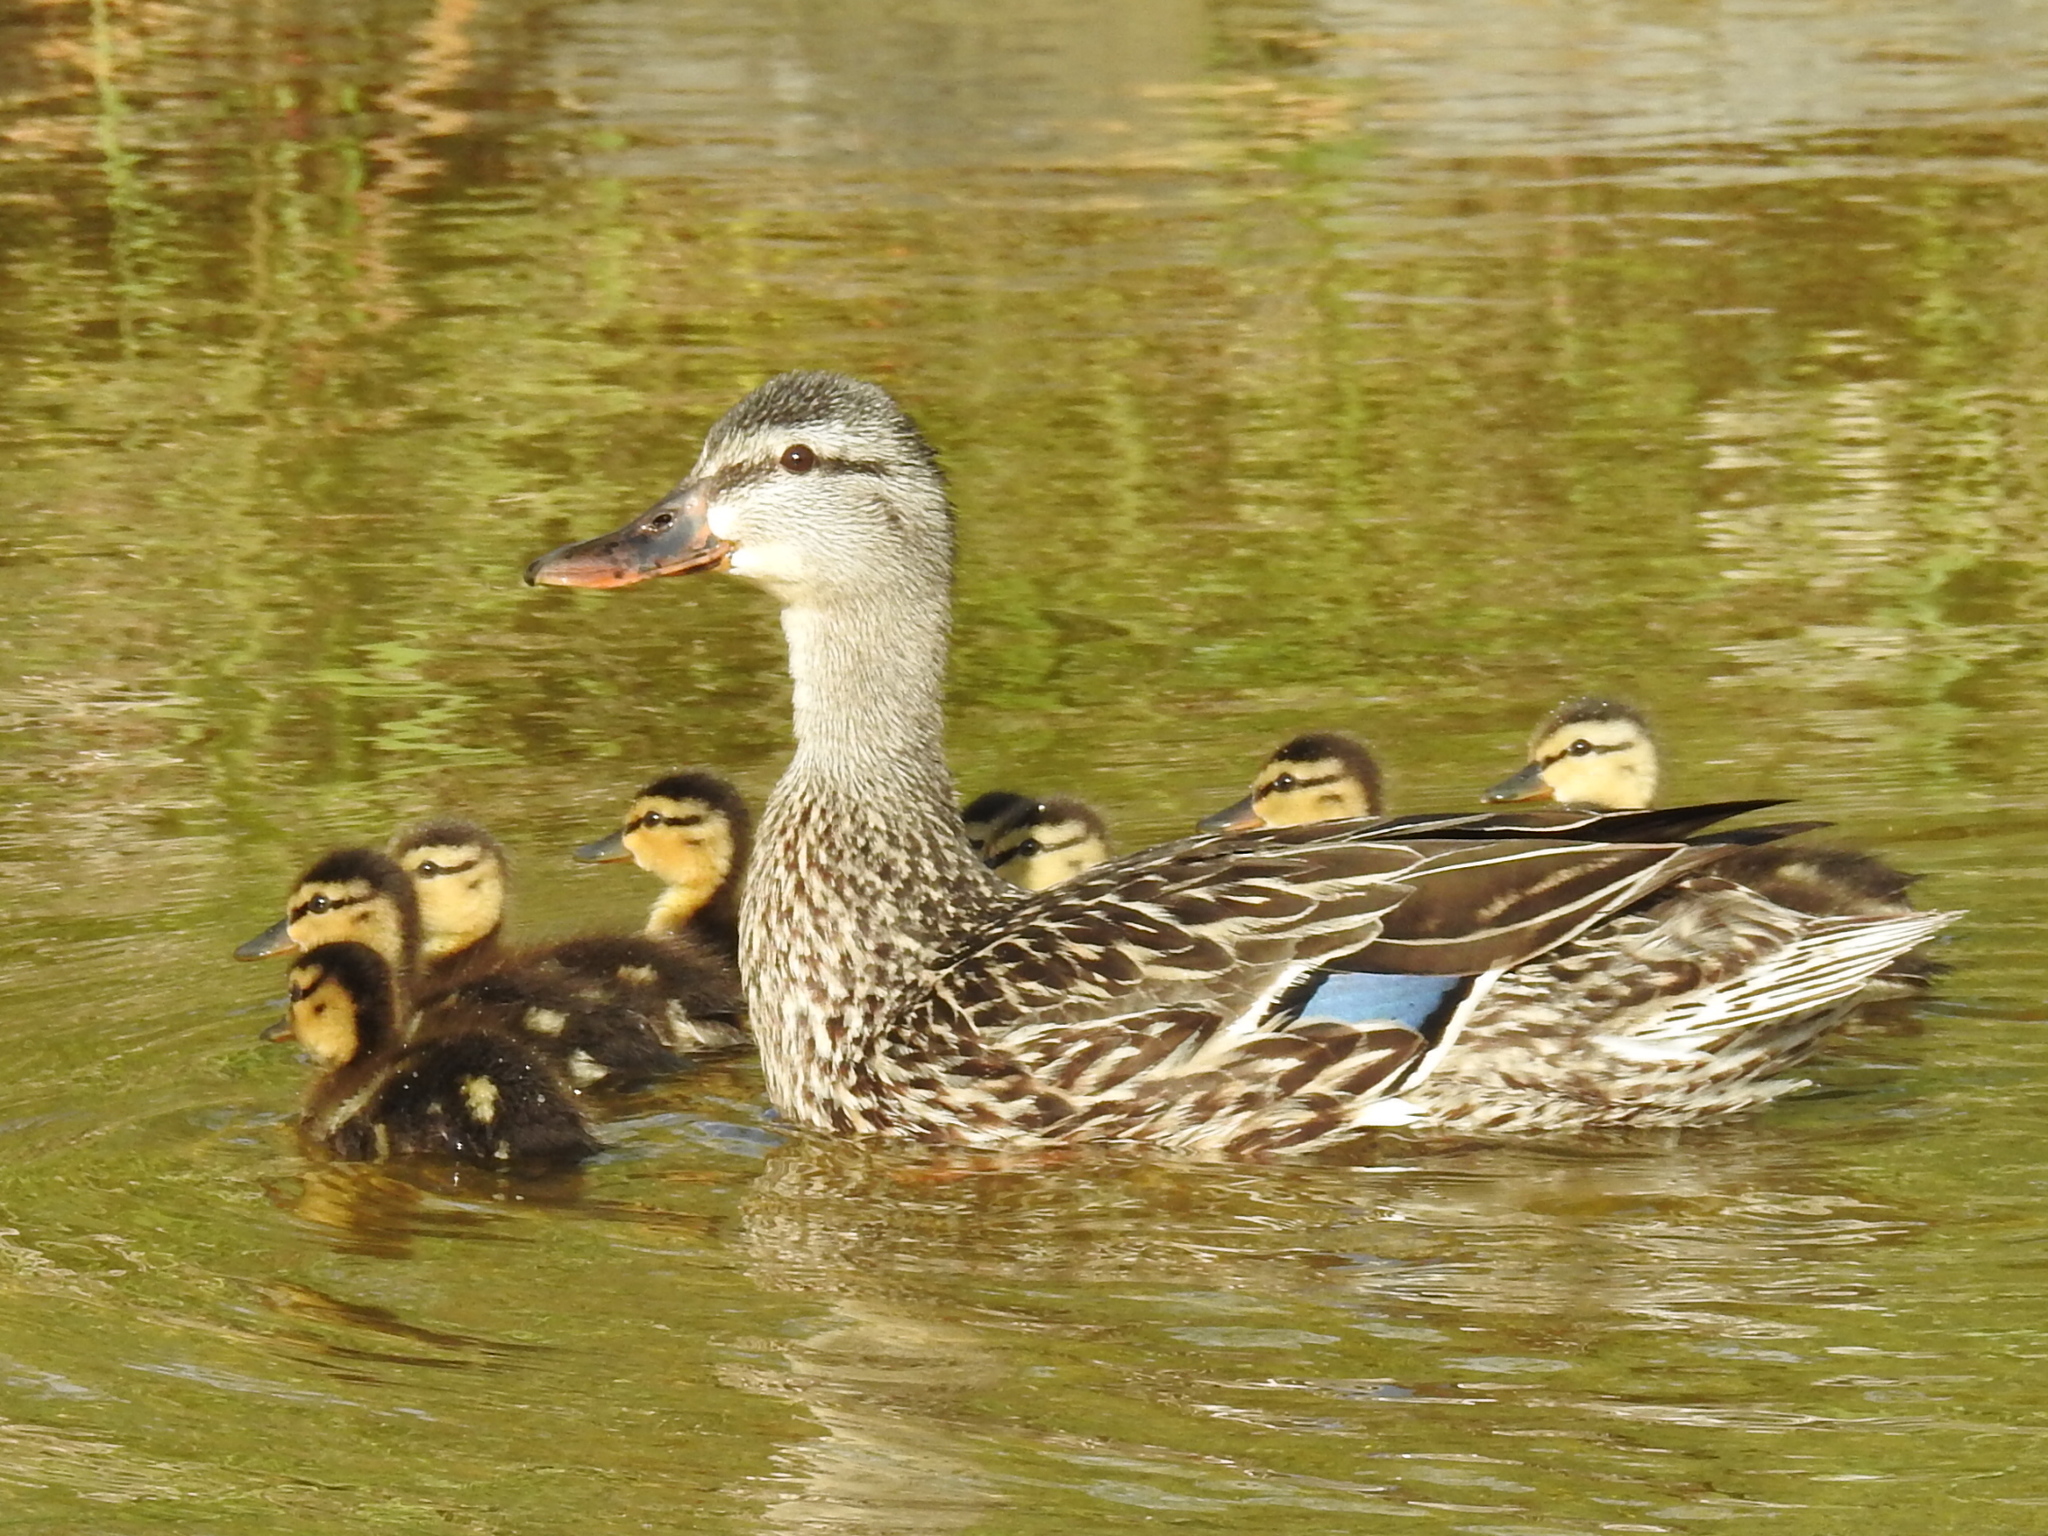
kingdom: Animalia
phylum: Chordata
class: Aves
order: Anseriformes
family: Anatidae
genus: Anas
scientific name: Anas platyrhynchos
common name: Mallard
